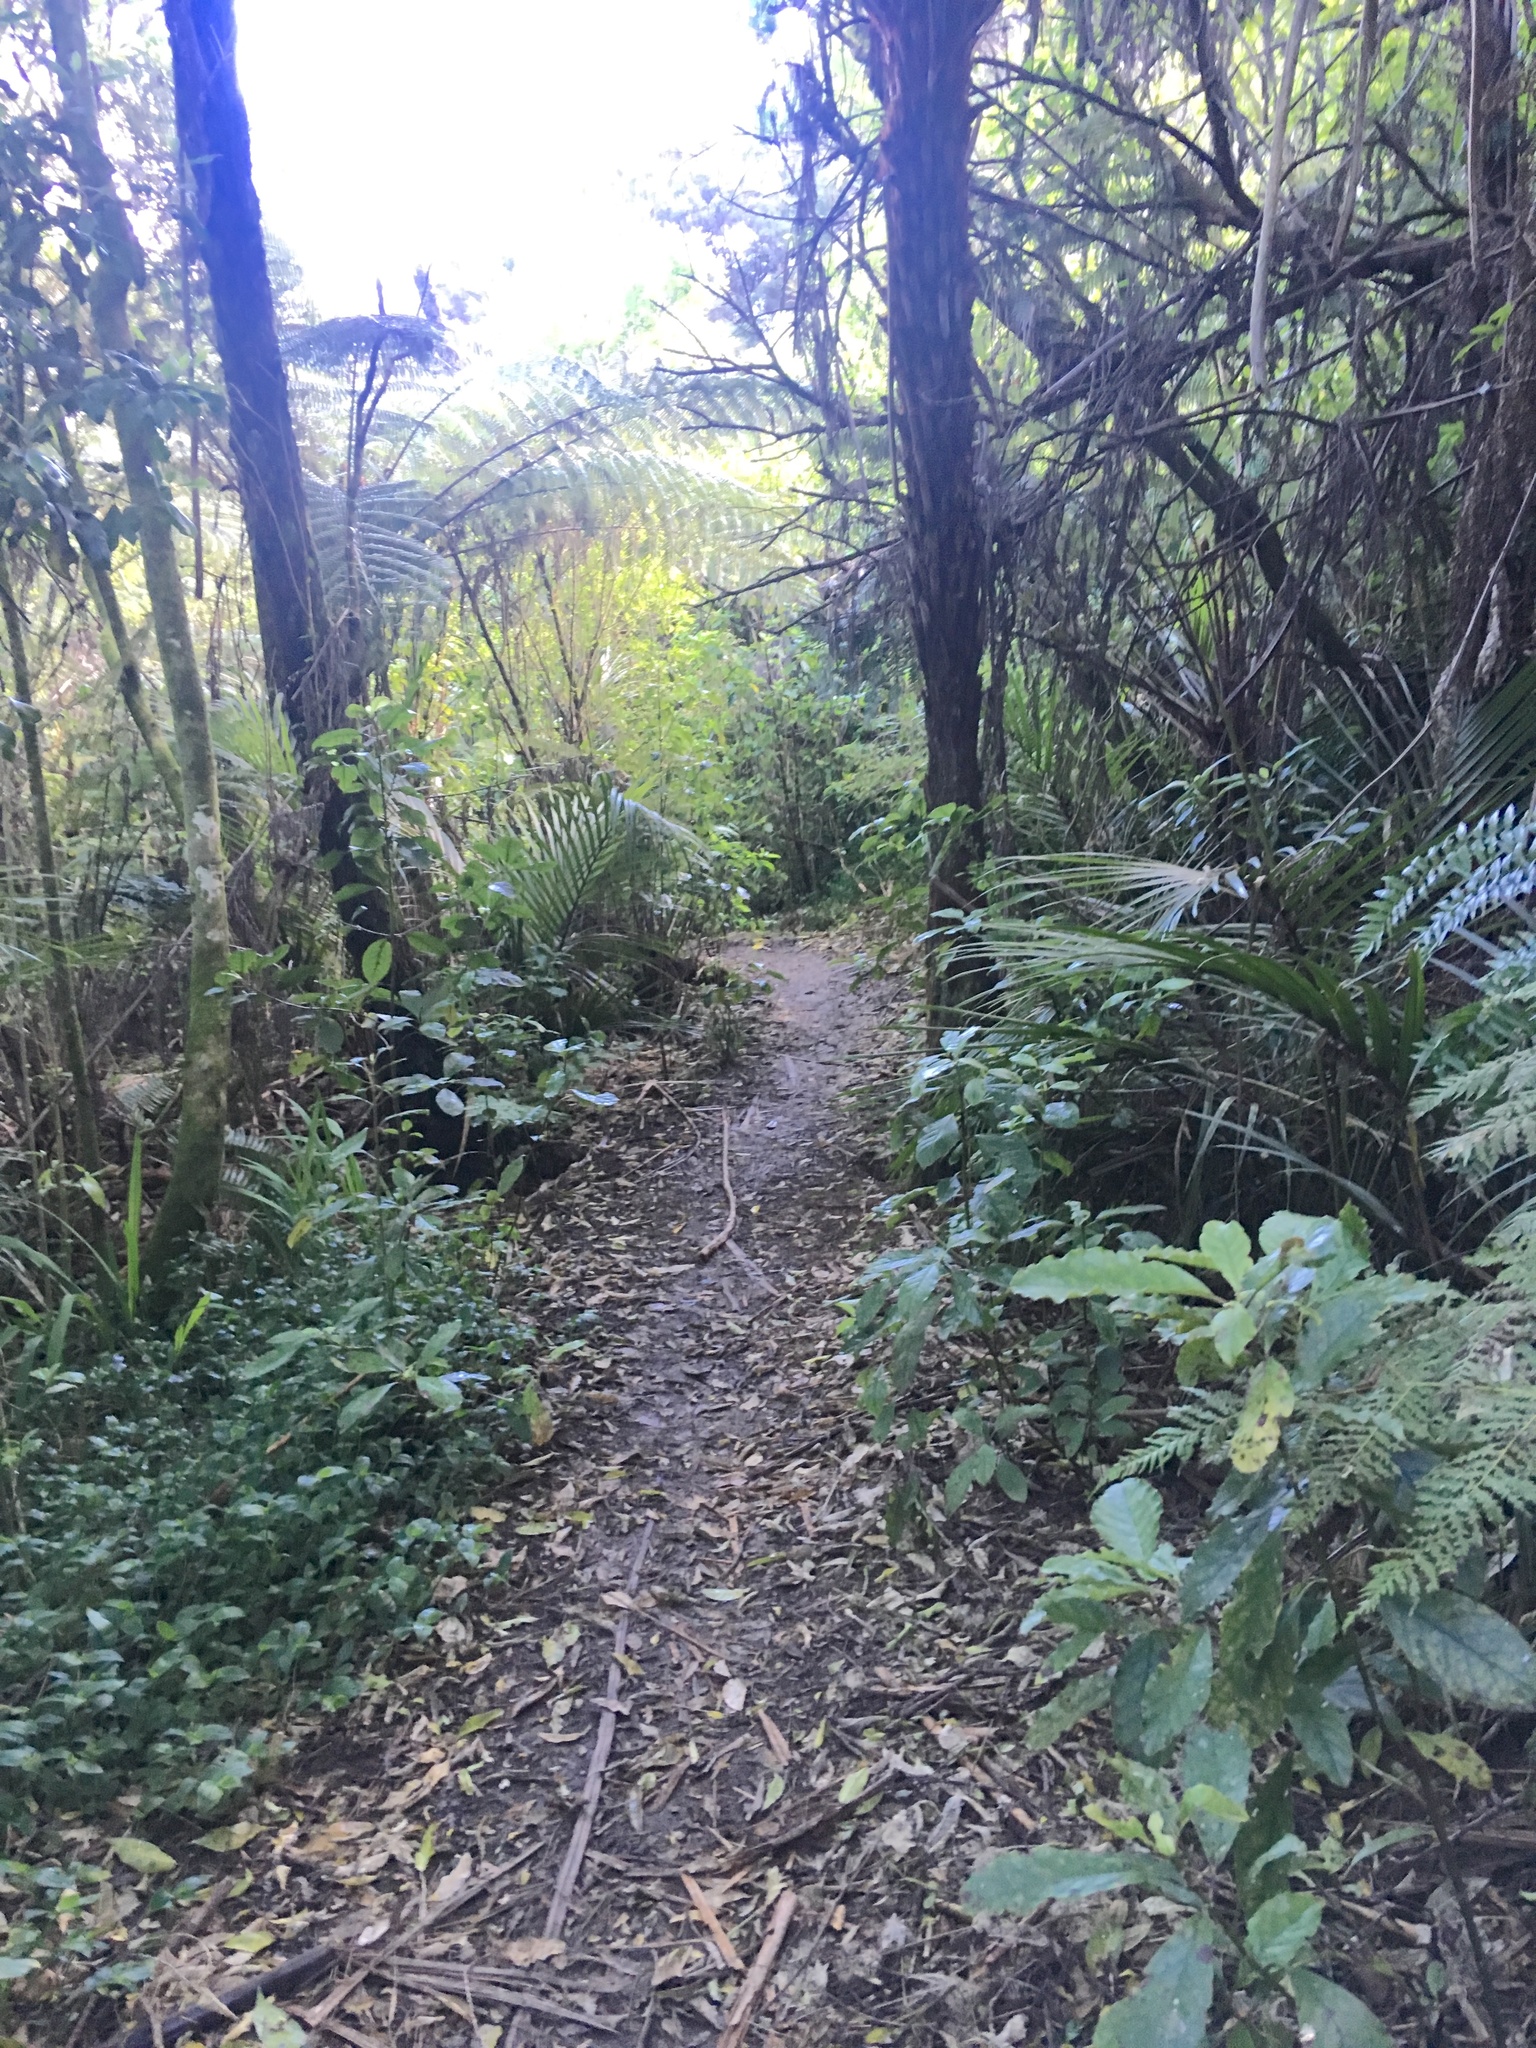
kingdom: Plantae
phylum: Tracheophyta
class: Magnoliopsida
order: Gentianales
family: Rubiaceae
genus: Coprosma
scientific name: Coprosma autumnalis
